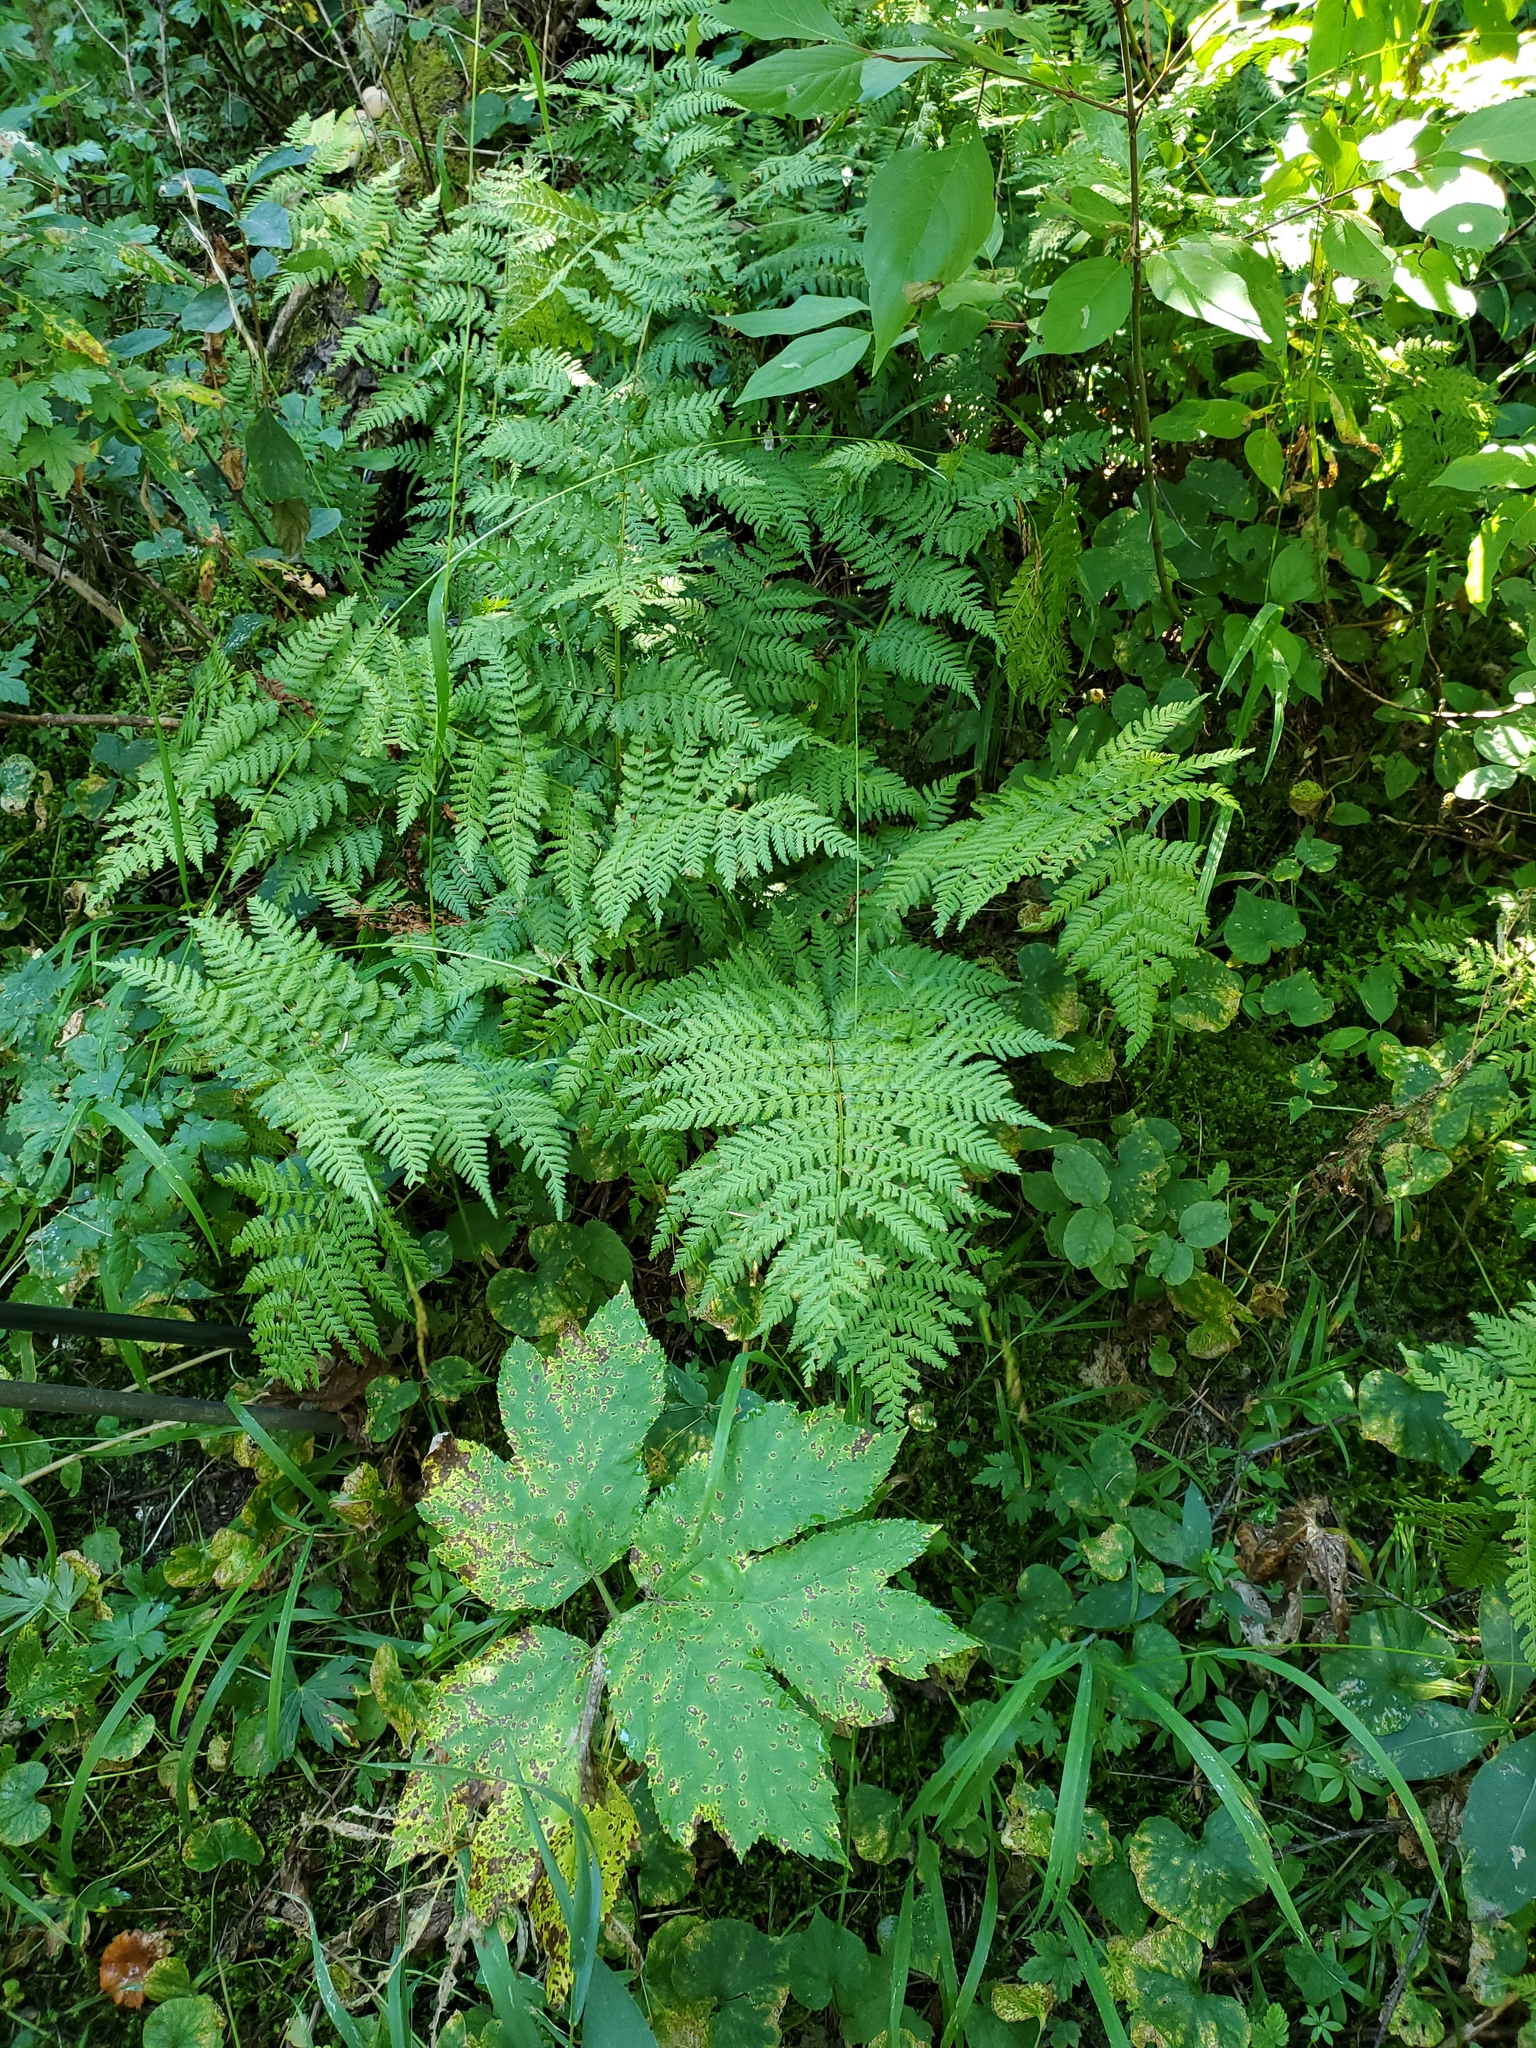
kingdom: Plantae
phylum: Tracheophyta
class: Polypodiopsida
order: Polypodiales
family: Dryopteridaceae
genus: Dryopteris
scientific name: Dryopteris expansa
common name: Northern buckler fern
